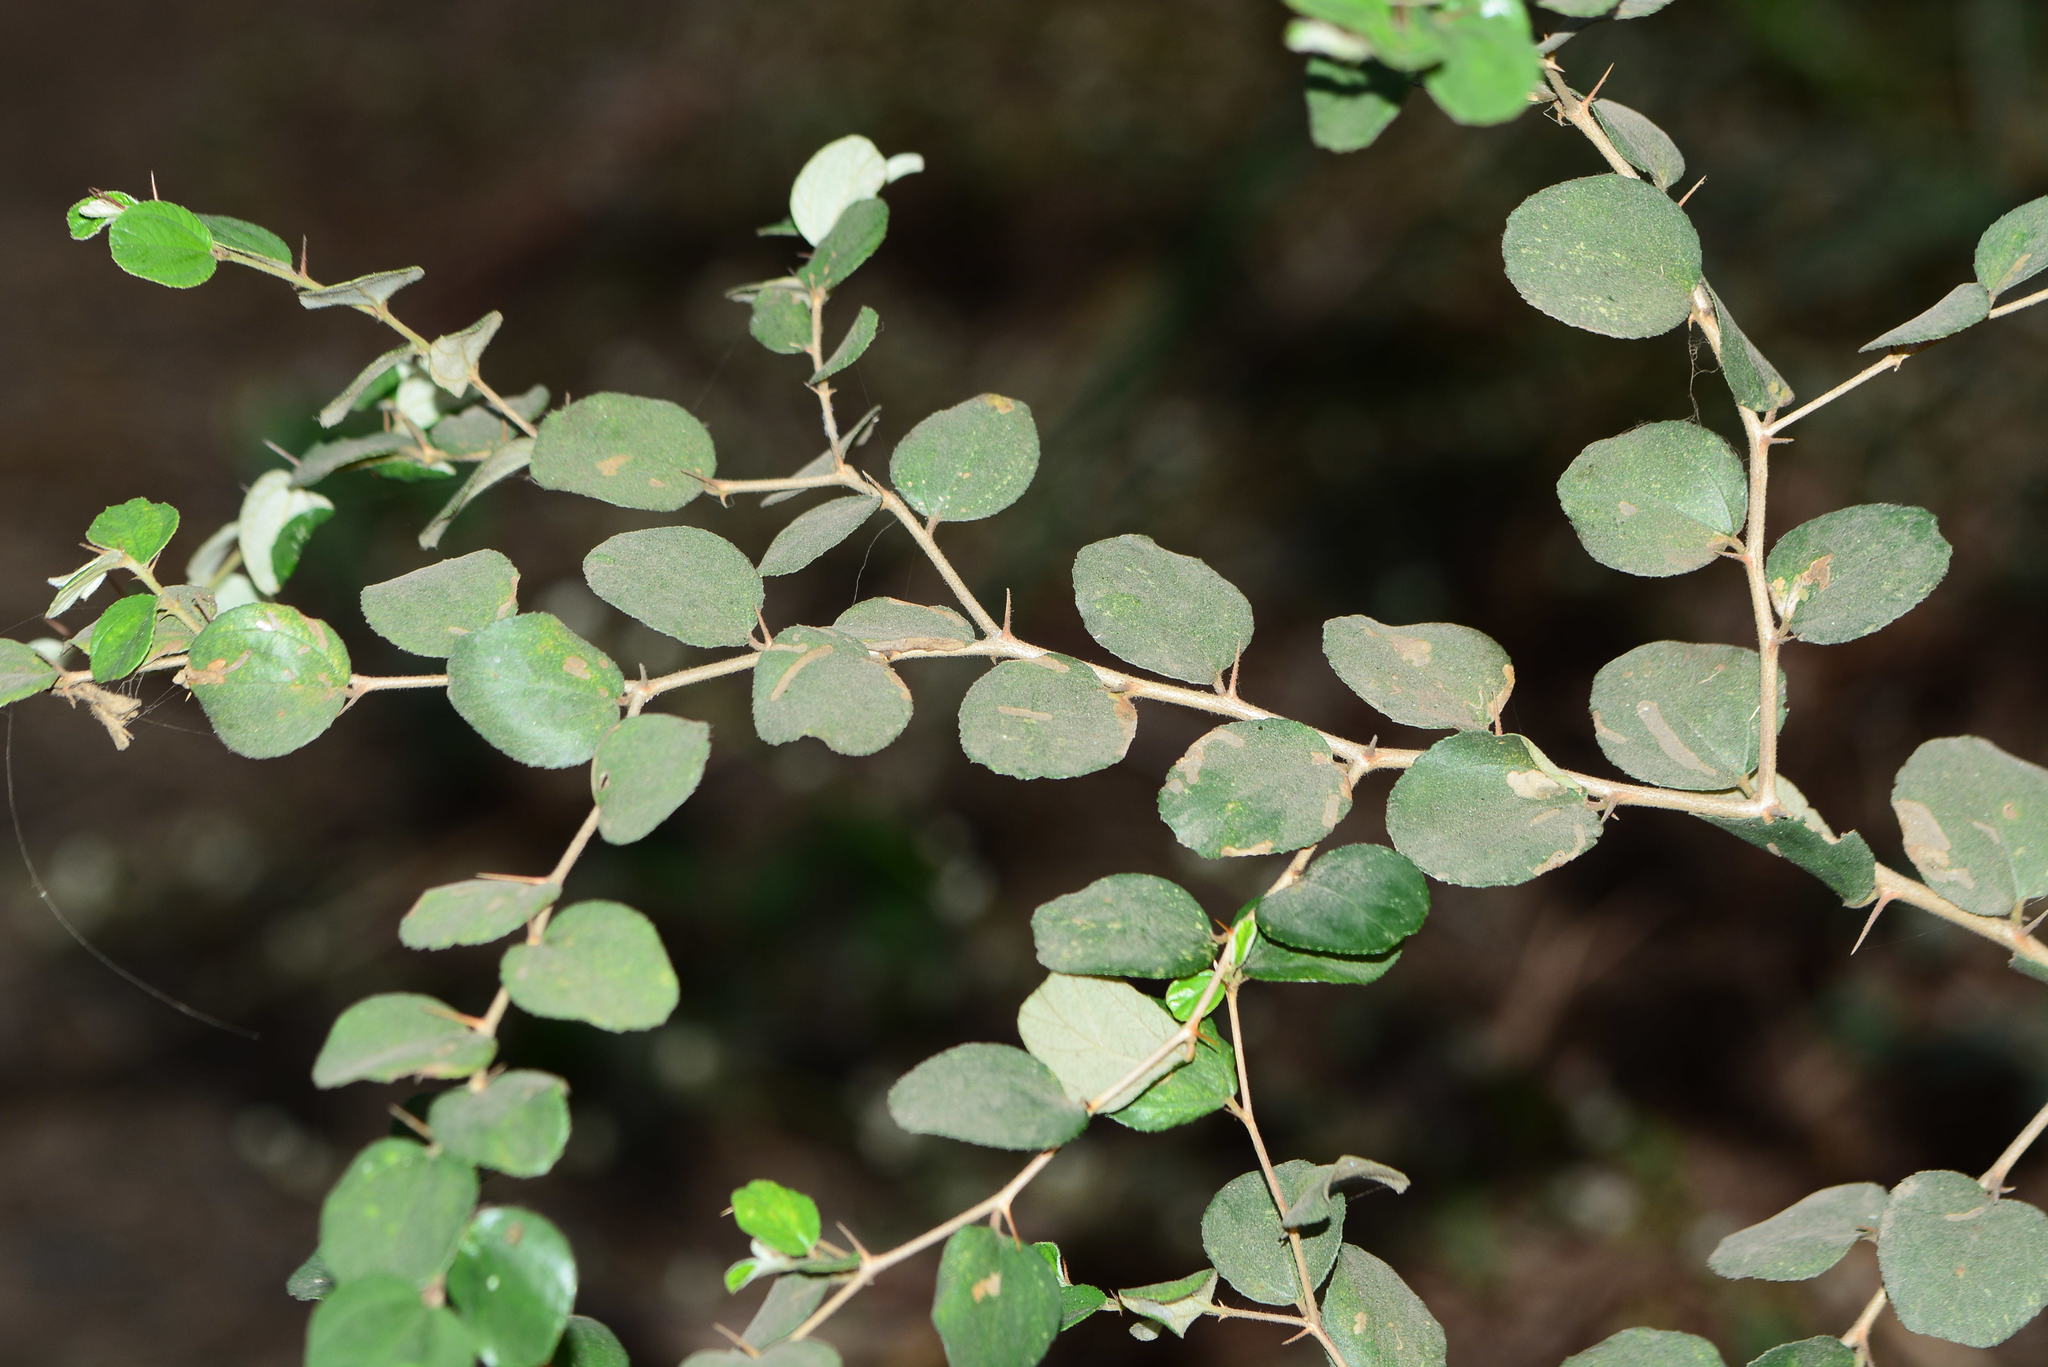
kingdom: Plantae
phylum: Tracheophyta
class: Magnoliopsida
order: Rosales
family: Rhamnaceae
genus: Ziziphus
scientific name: Ziziphus nummularia
